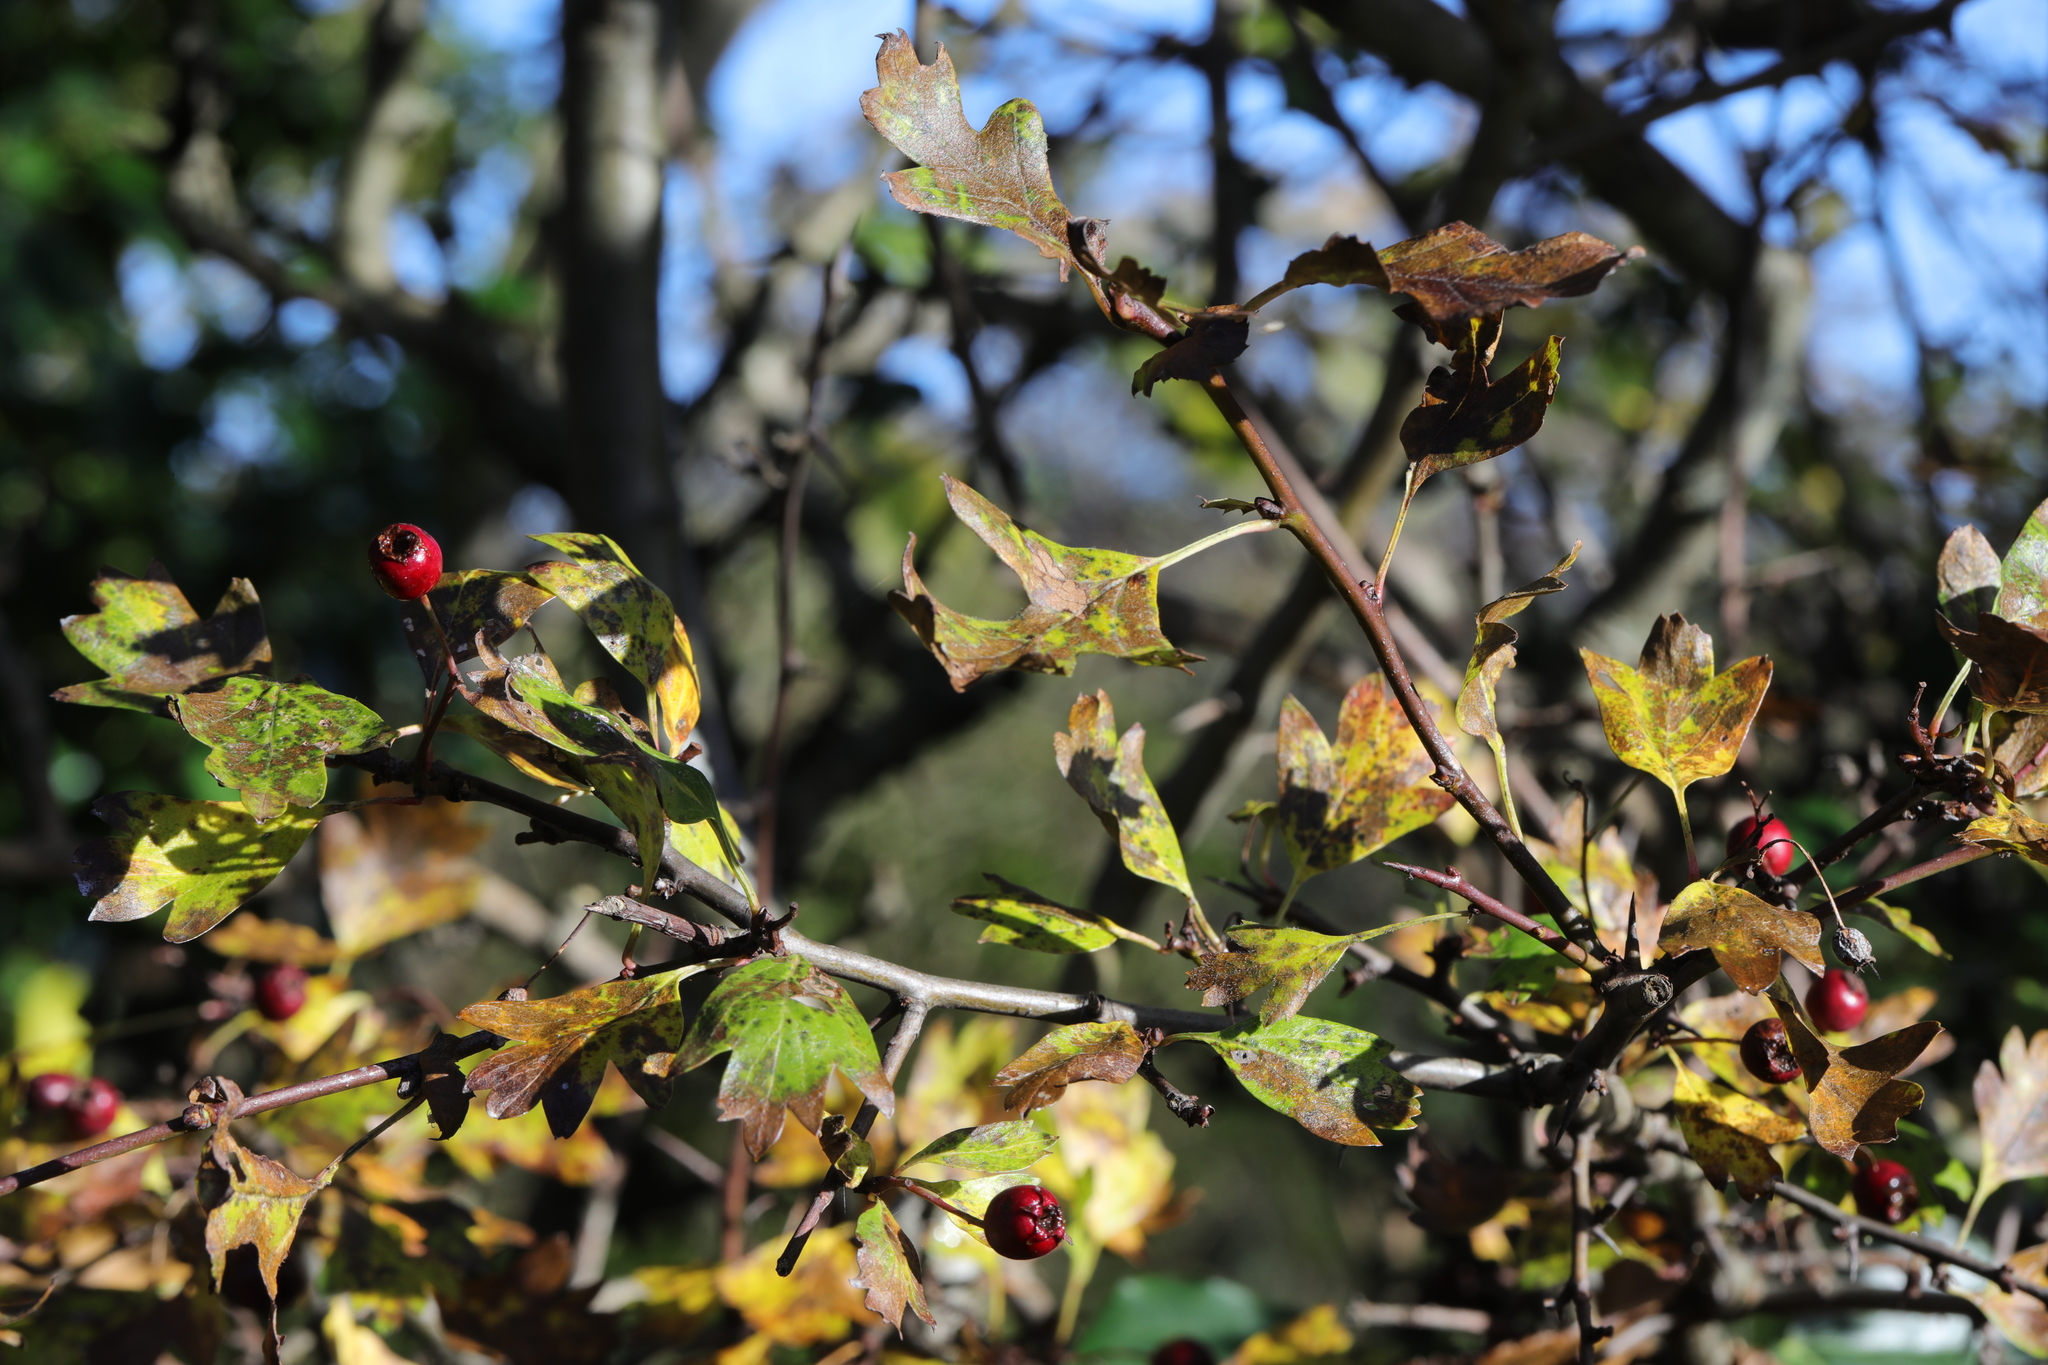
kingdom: Plantae
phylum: Tracheophyta
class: Magnoliopsida
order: Rosales
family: Rosaceae
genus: Crataegus
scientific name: Crataegus monogyna
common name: Hawthorn
